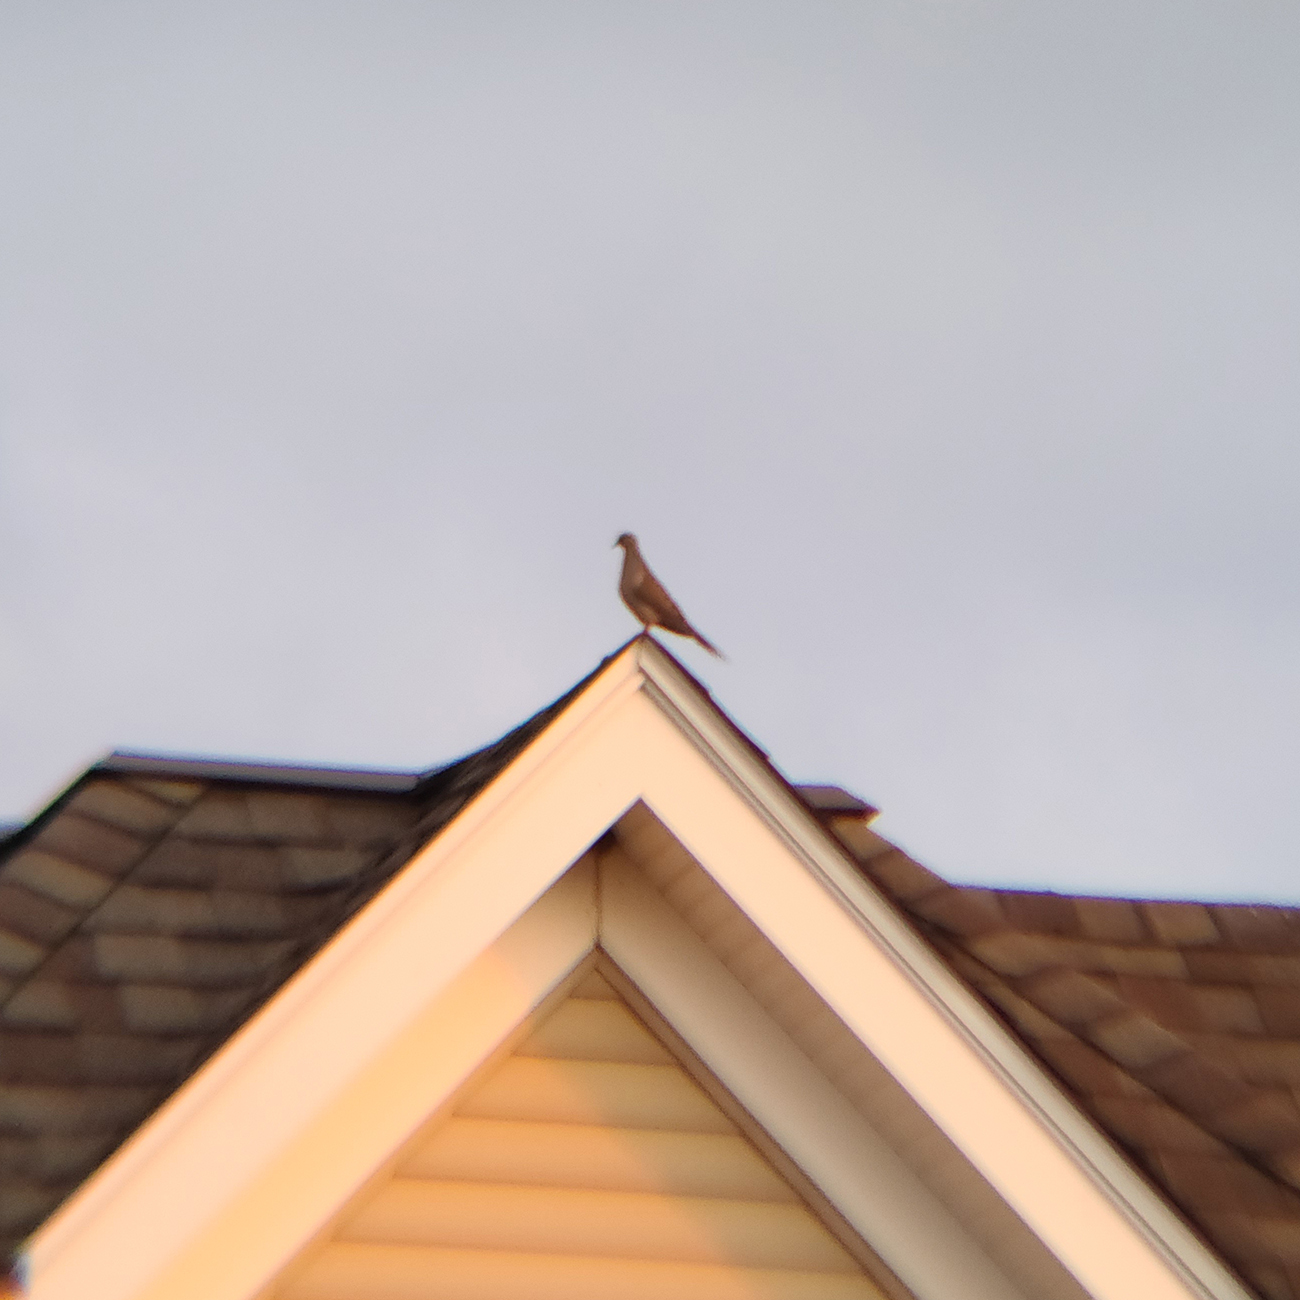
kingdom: Animalia
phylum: Chordata
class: Aves
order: Columbiformes
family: Columbidae
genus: Zenaida
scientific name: Zenaida macroura
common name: Mourning dove
